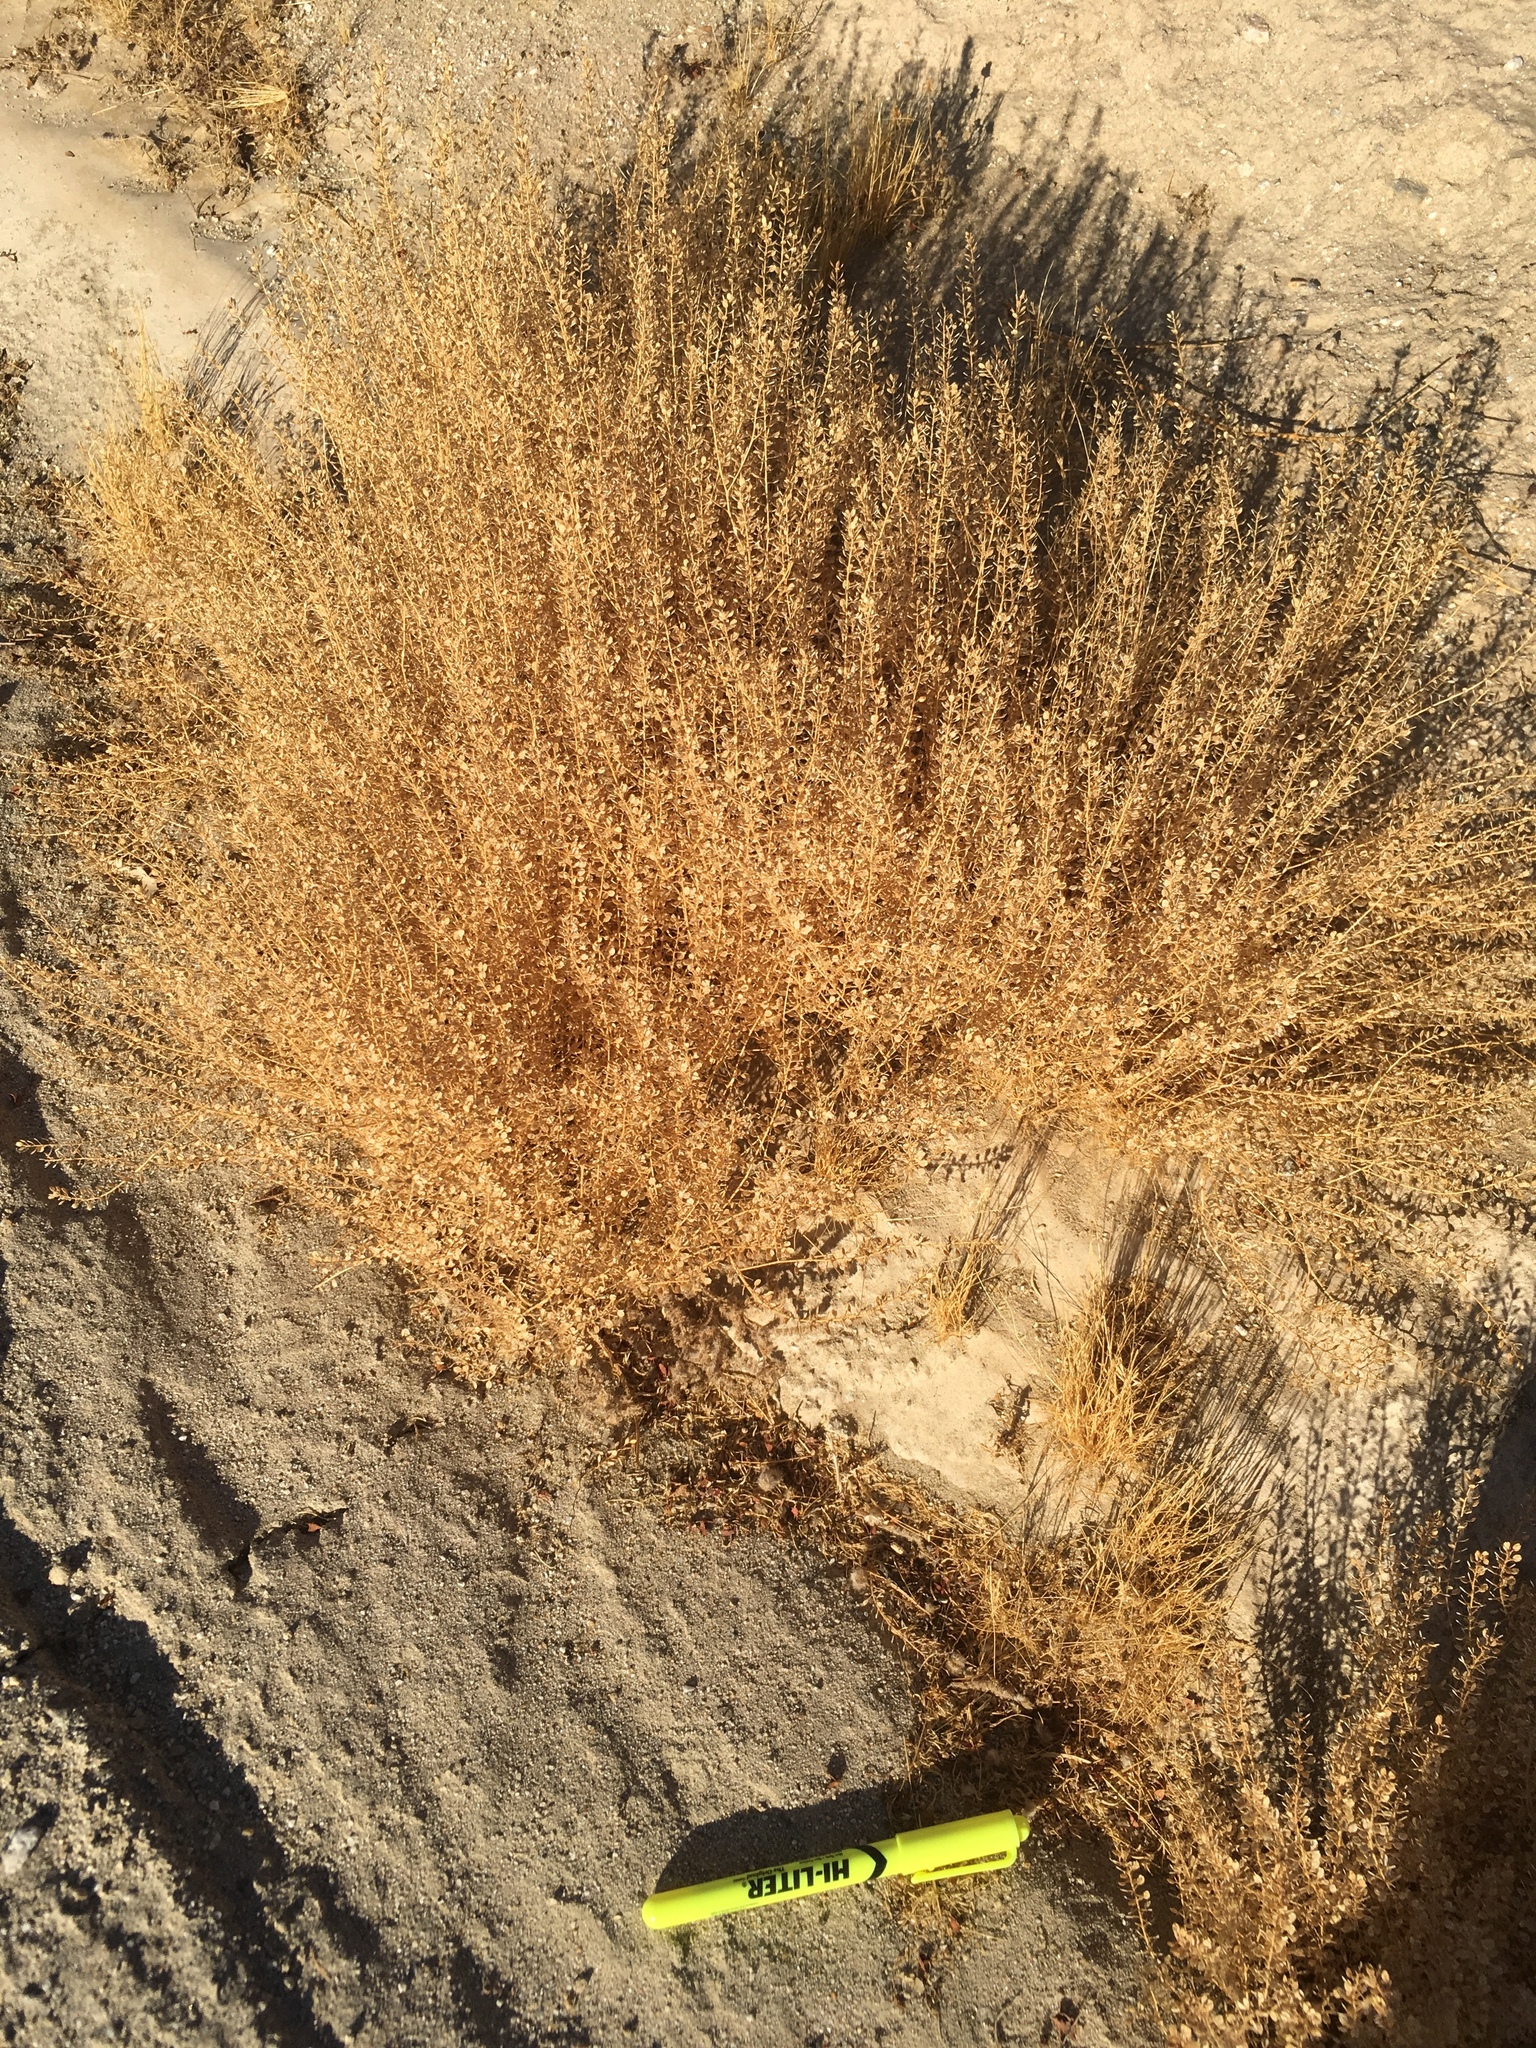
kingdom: Plantae
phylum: Tracheophyta
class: Magnoliopsida
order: Brassicales
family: Brassicaceae
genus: Lepidium
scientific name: Lepidium lasiocarpum
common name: Hairy-pod pepperwort
